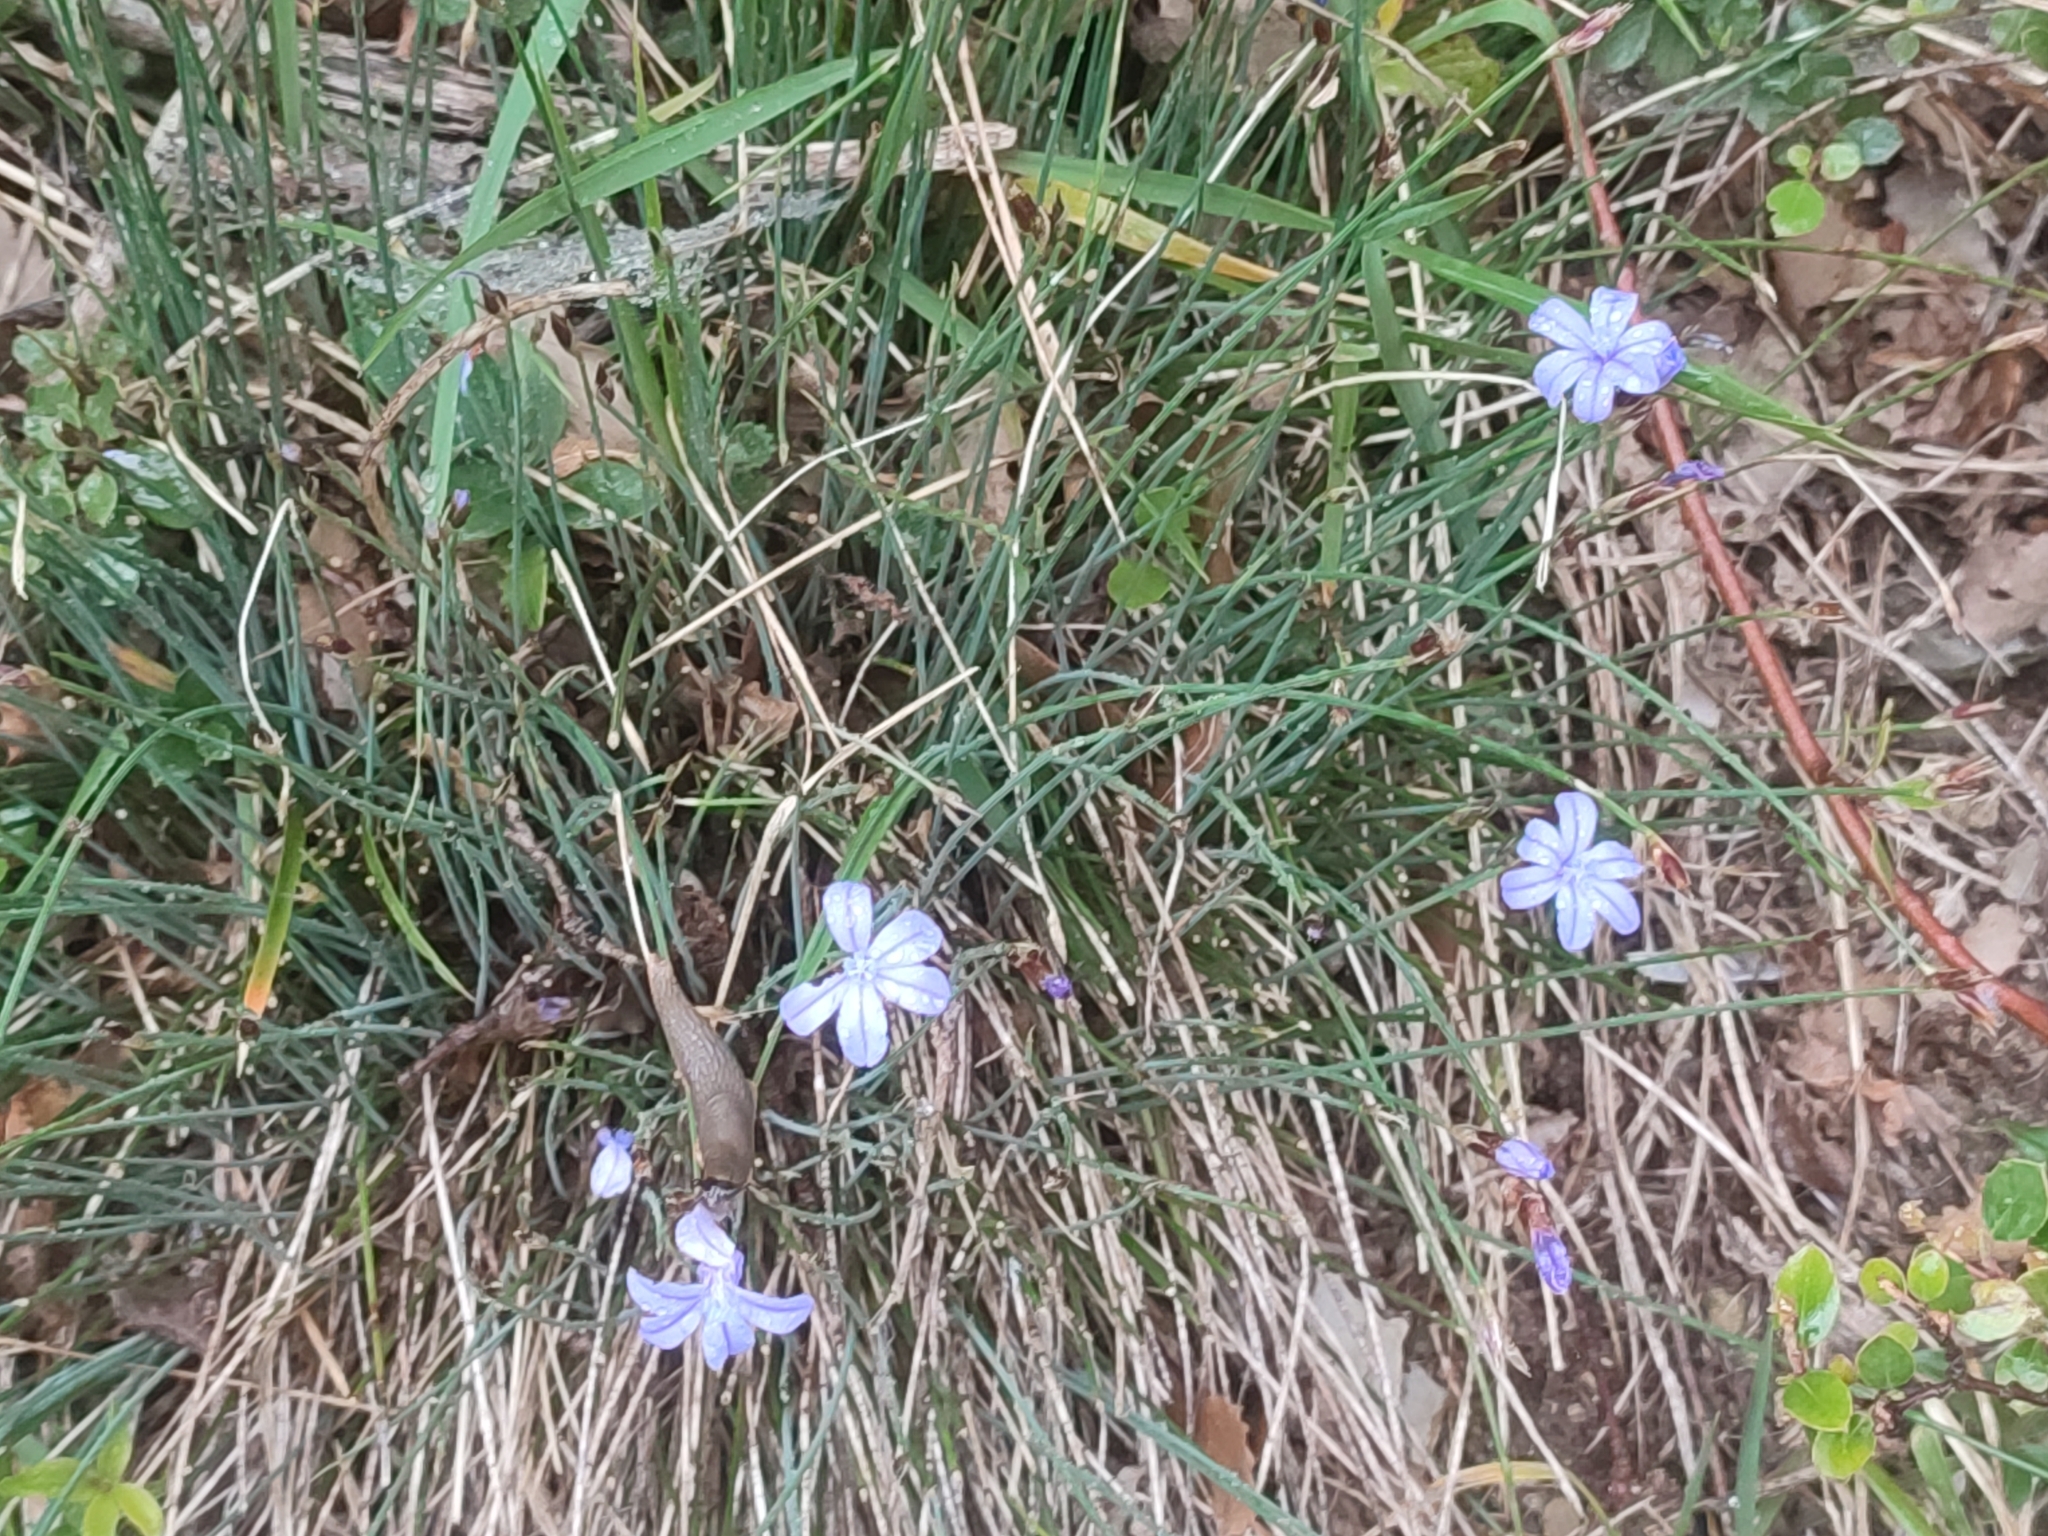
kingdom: Plantae
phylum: Tracheophyta
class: Liliopsida
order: Asparagales
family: Asparagaceae
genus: Aphyllanthes
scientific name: Aphyllanthes monspeliensis
